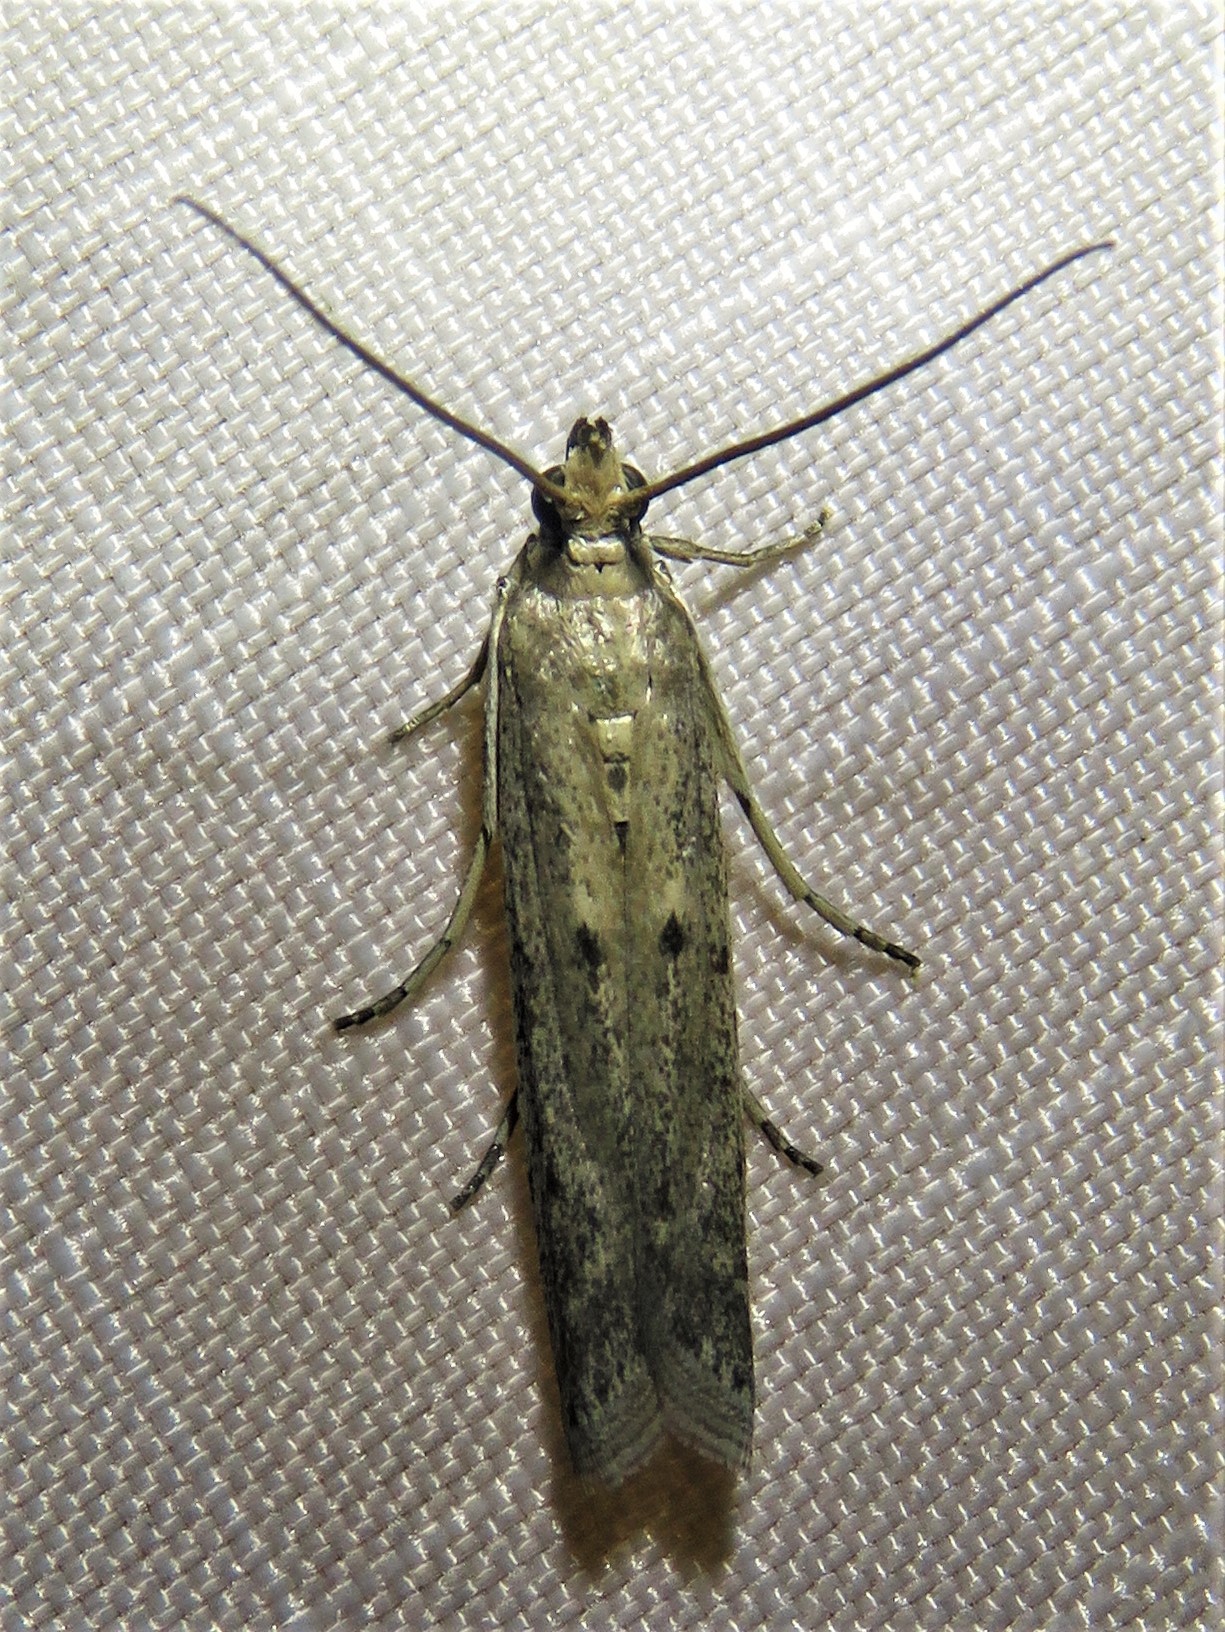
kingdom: Animalia
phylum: Arthropoda
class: Insecta
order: Lepidoptera
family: Pyralidae
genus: Homoeosoma
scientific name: Homoeosoma electella
